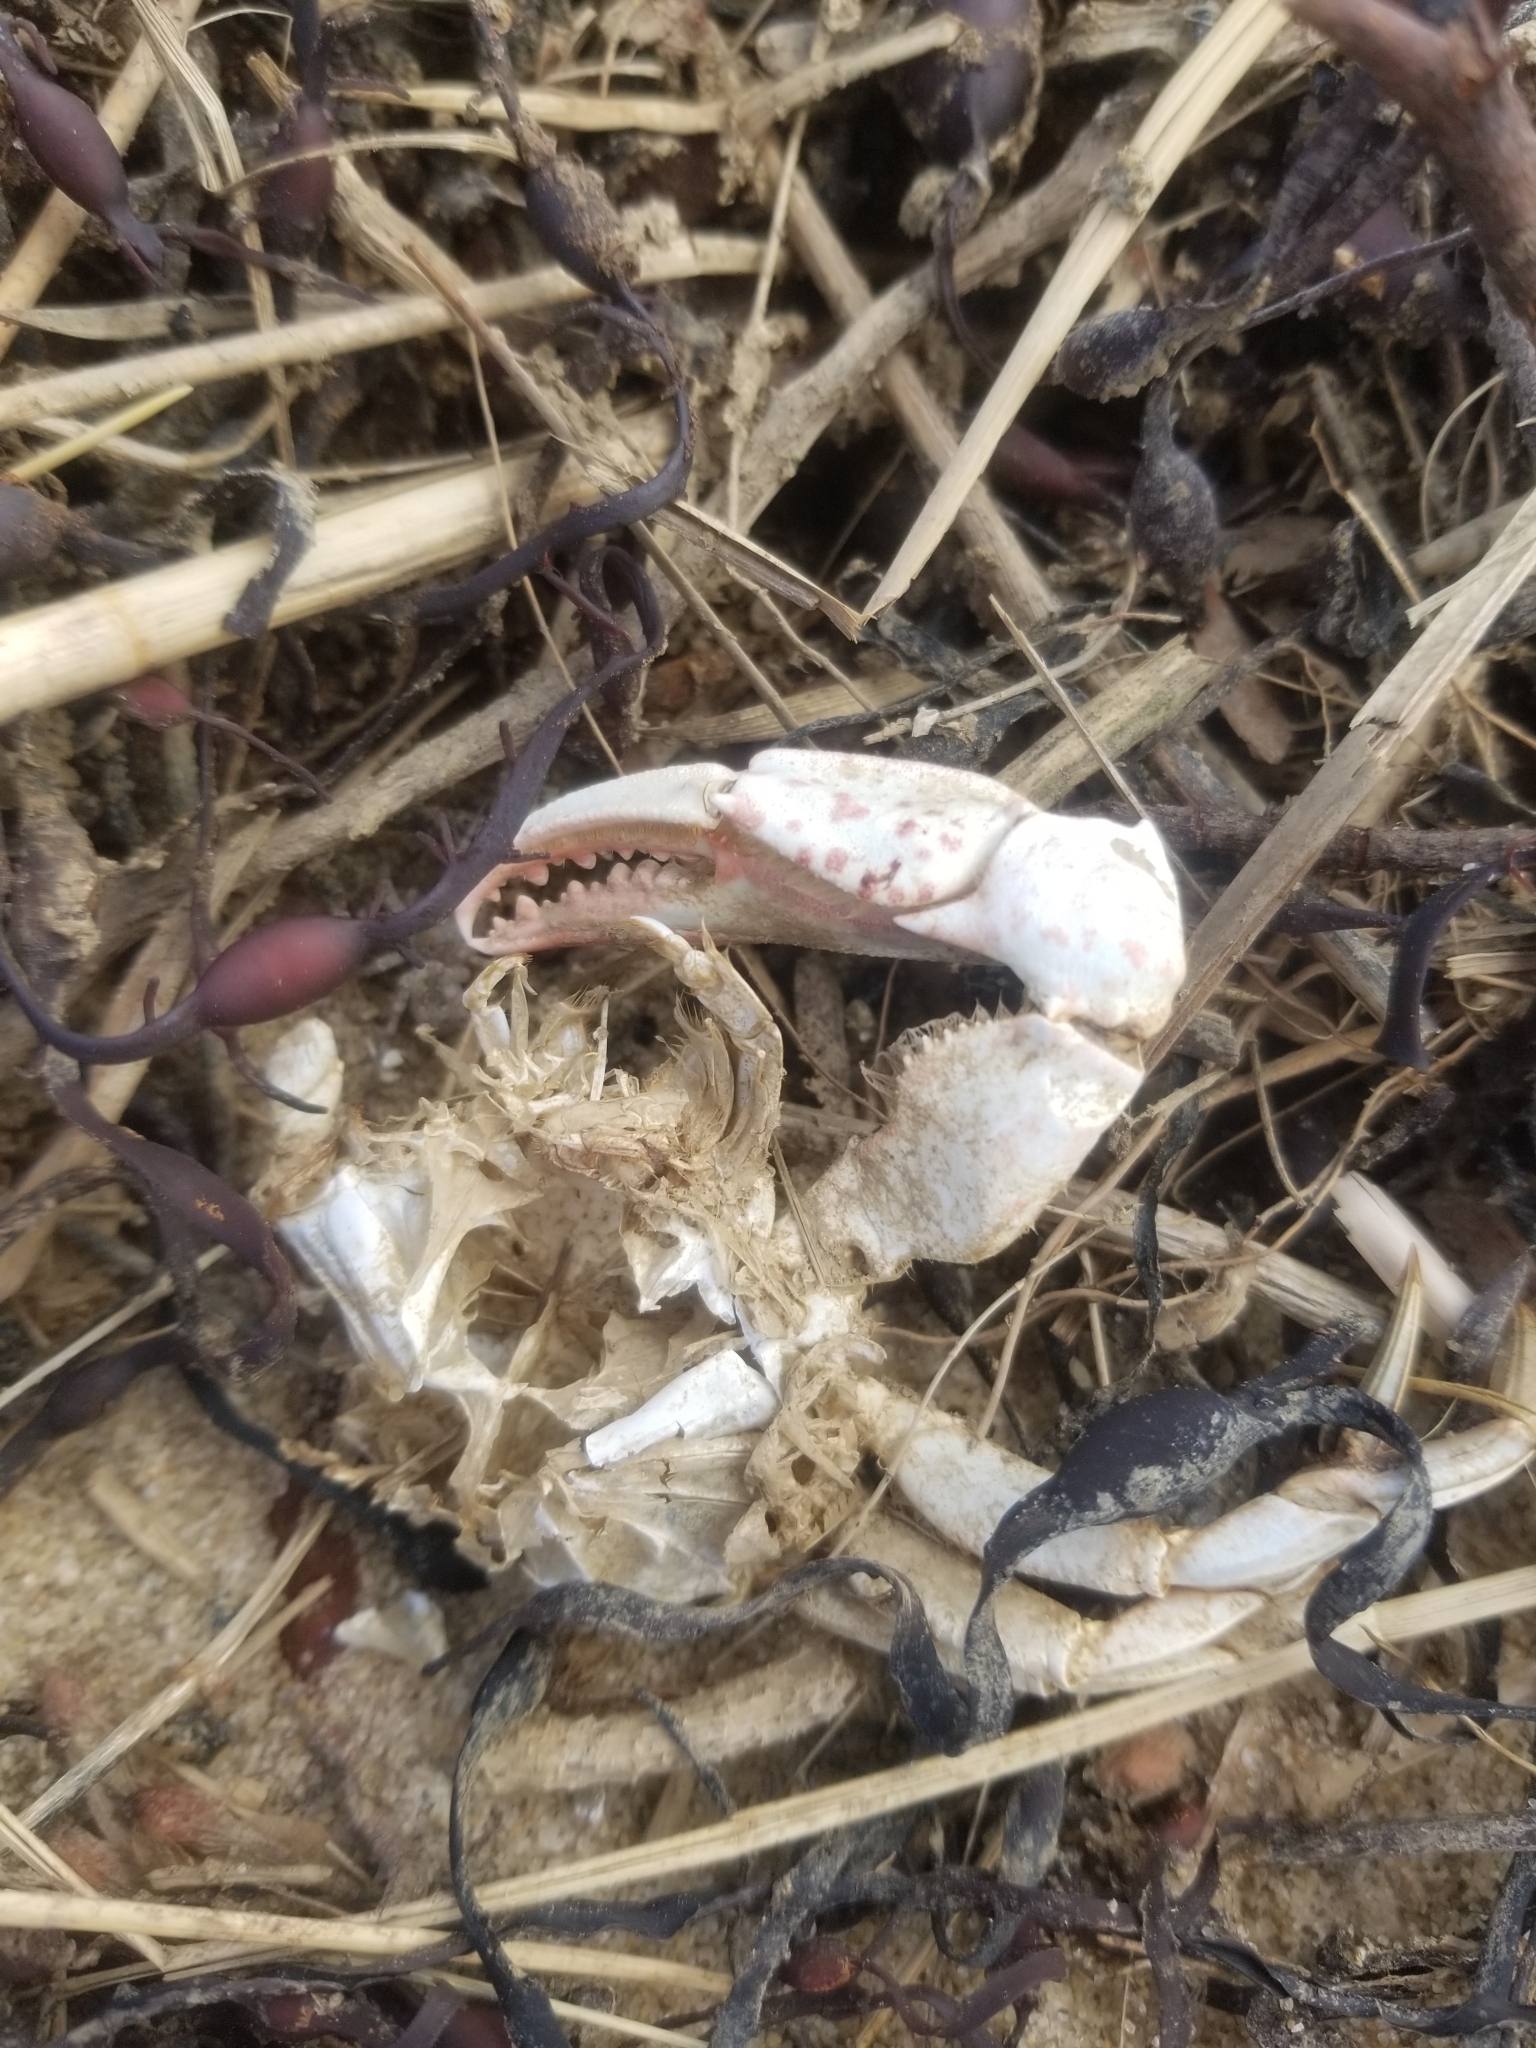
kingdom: Animalia
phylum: Arthropoda
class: Malacostraca
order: Decapoda
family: Ovalipidae
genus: Ovalipes
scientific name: Ovalipes ocellatus
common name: Lady crab
